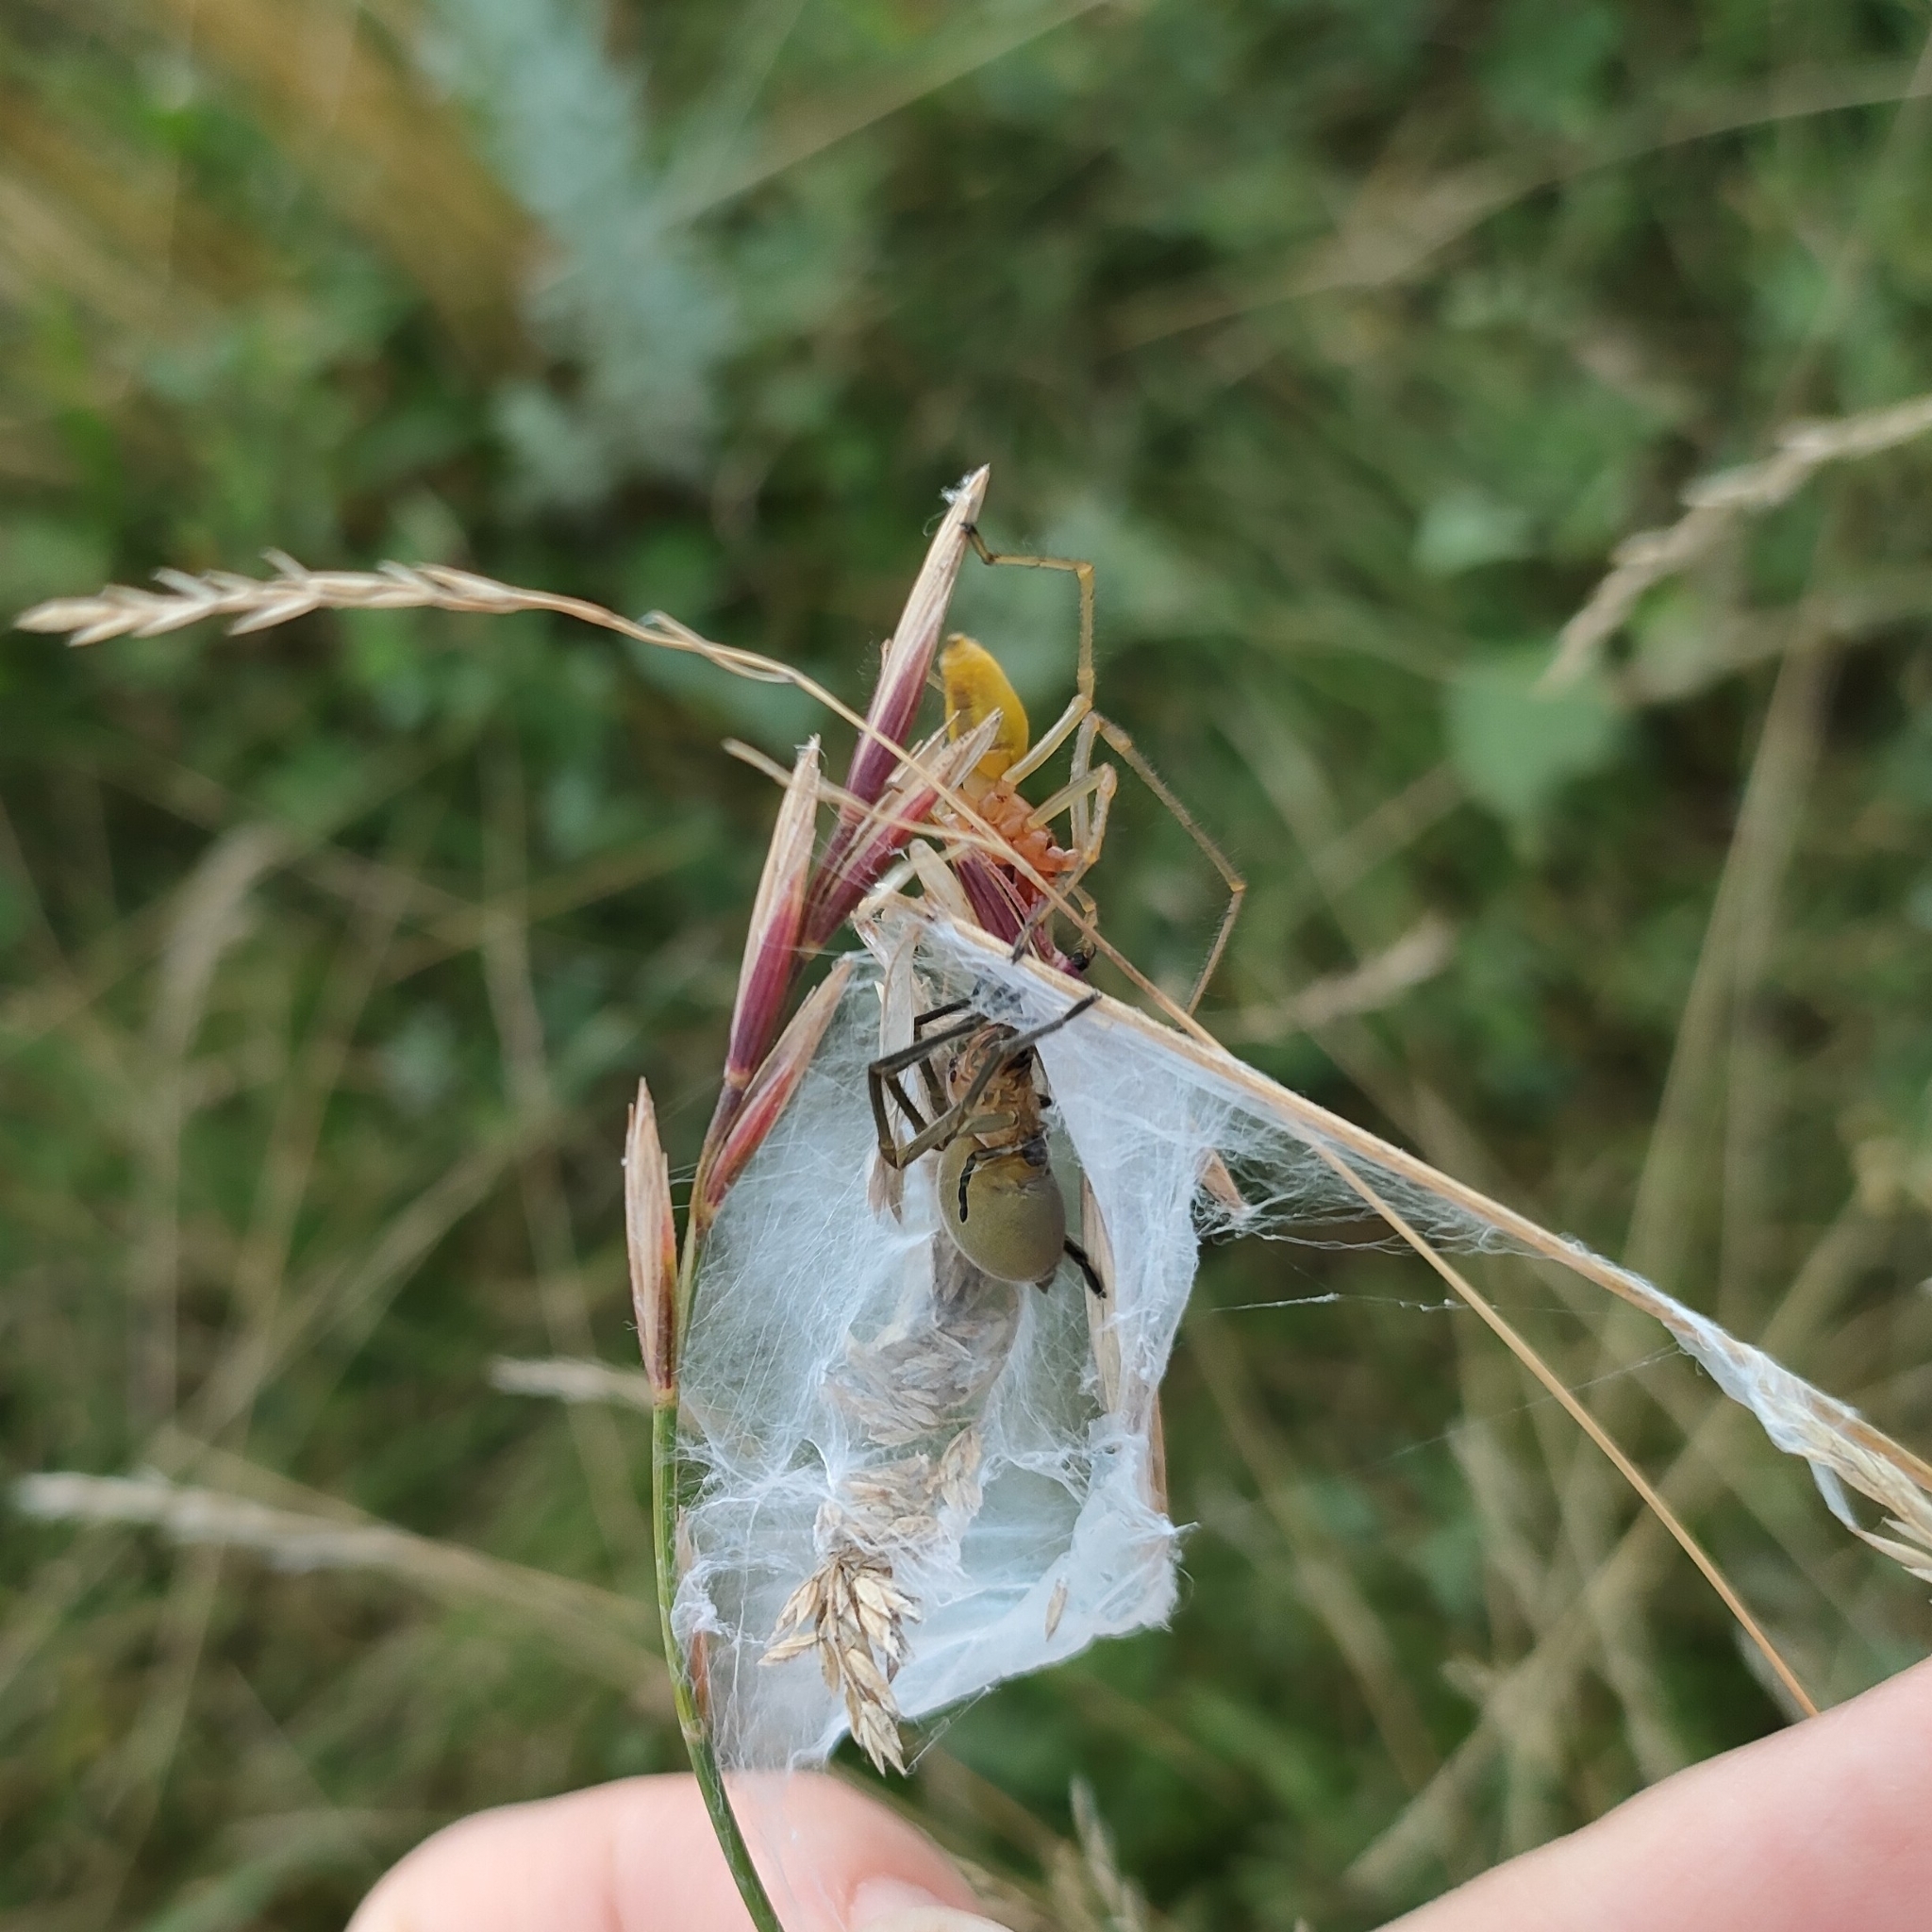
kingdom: Animalia
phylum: Arthropoda
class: Arachnida
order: Araneae
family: Cheiracanthiidae
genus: Cheiracanthium
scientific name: Cheiracanthium punctorium
